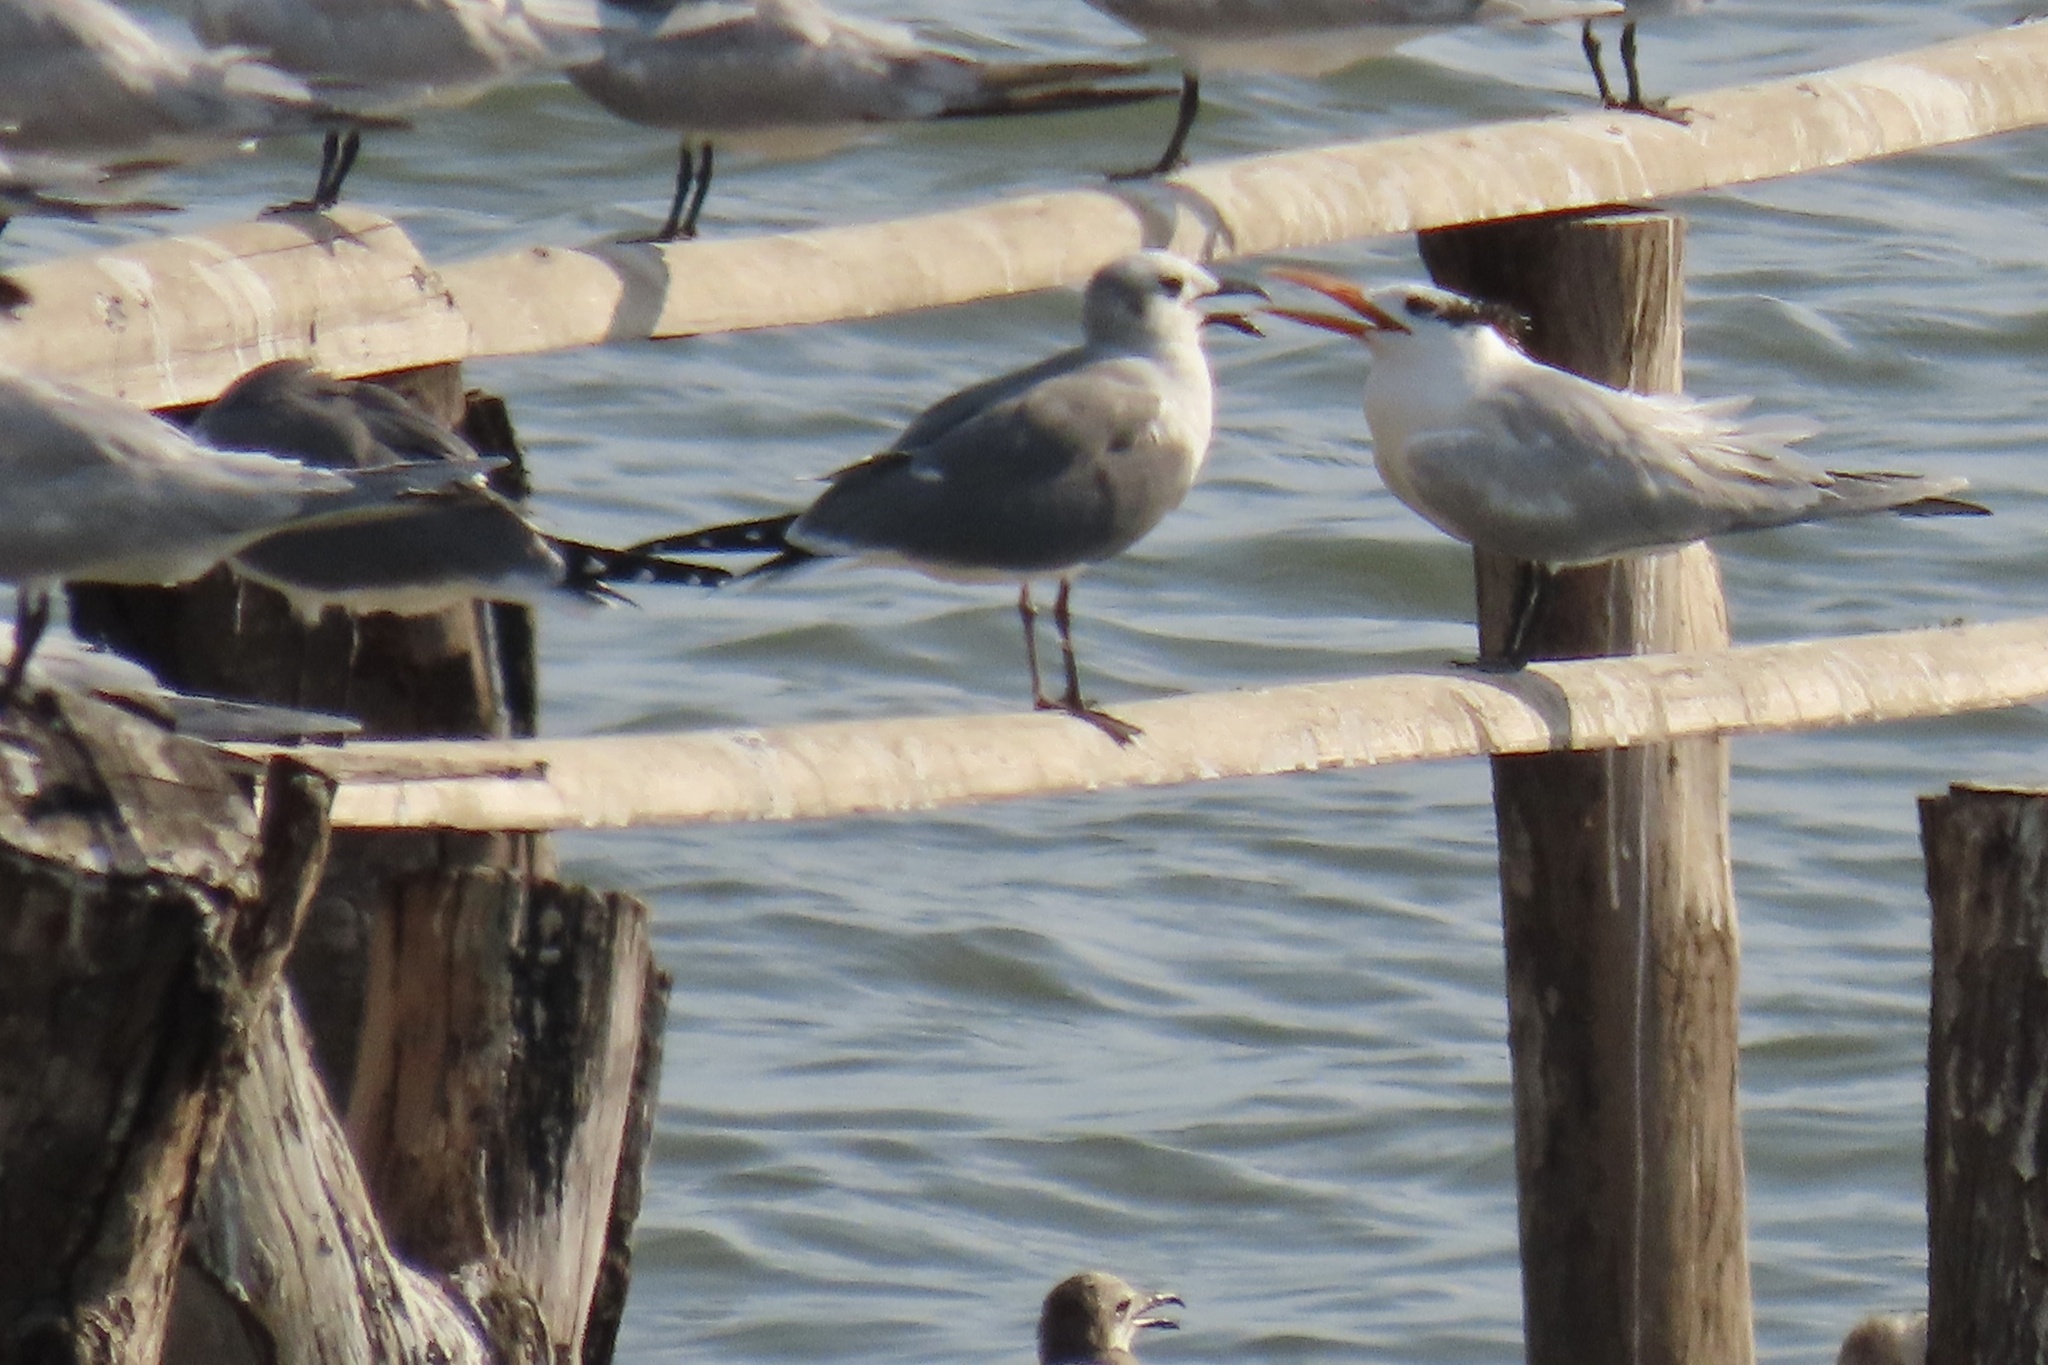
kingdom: Animalia
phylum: Chordata
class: Aves
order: Charadriiformes
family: Laridae
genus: Thalasseus
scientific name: Thalasseus maximus
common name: Royal tern
